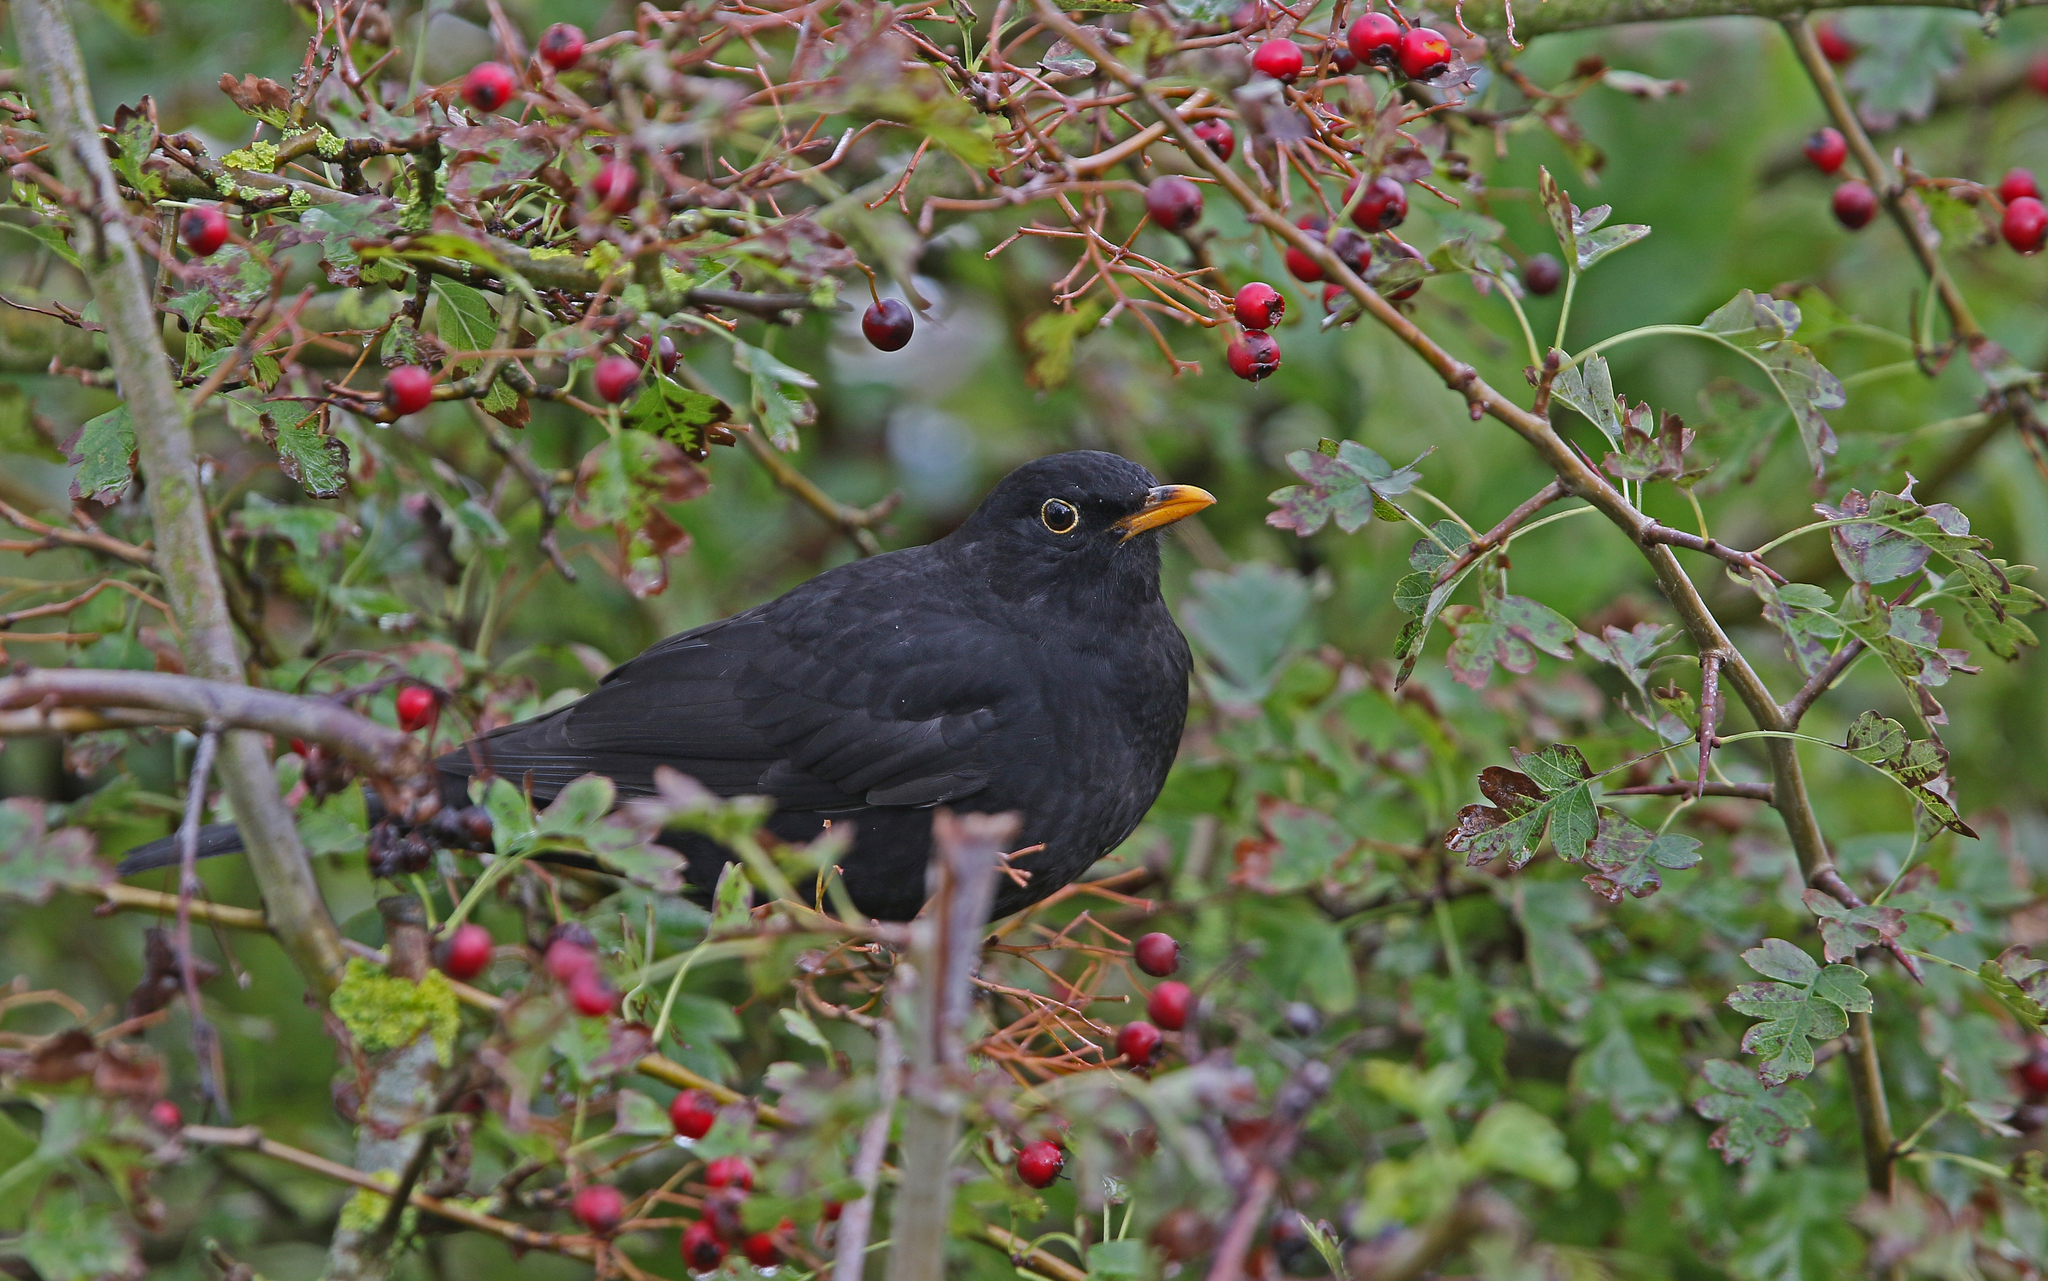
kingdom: Animalia
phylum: Chordata
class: Aves
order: Passeriformes
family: Turdidae
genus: Turdus
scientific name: Turdus merula
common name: Common blackbird
